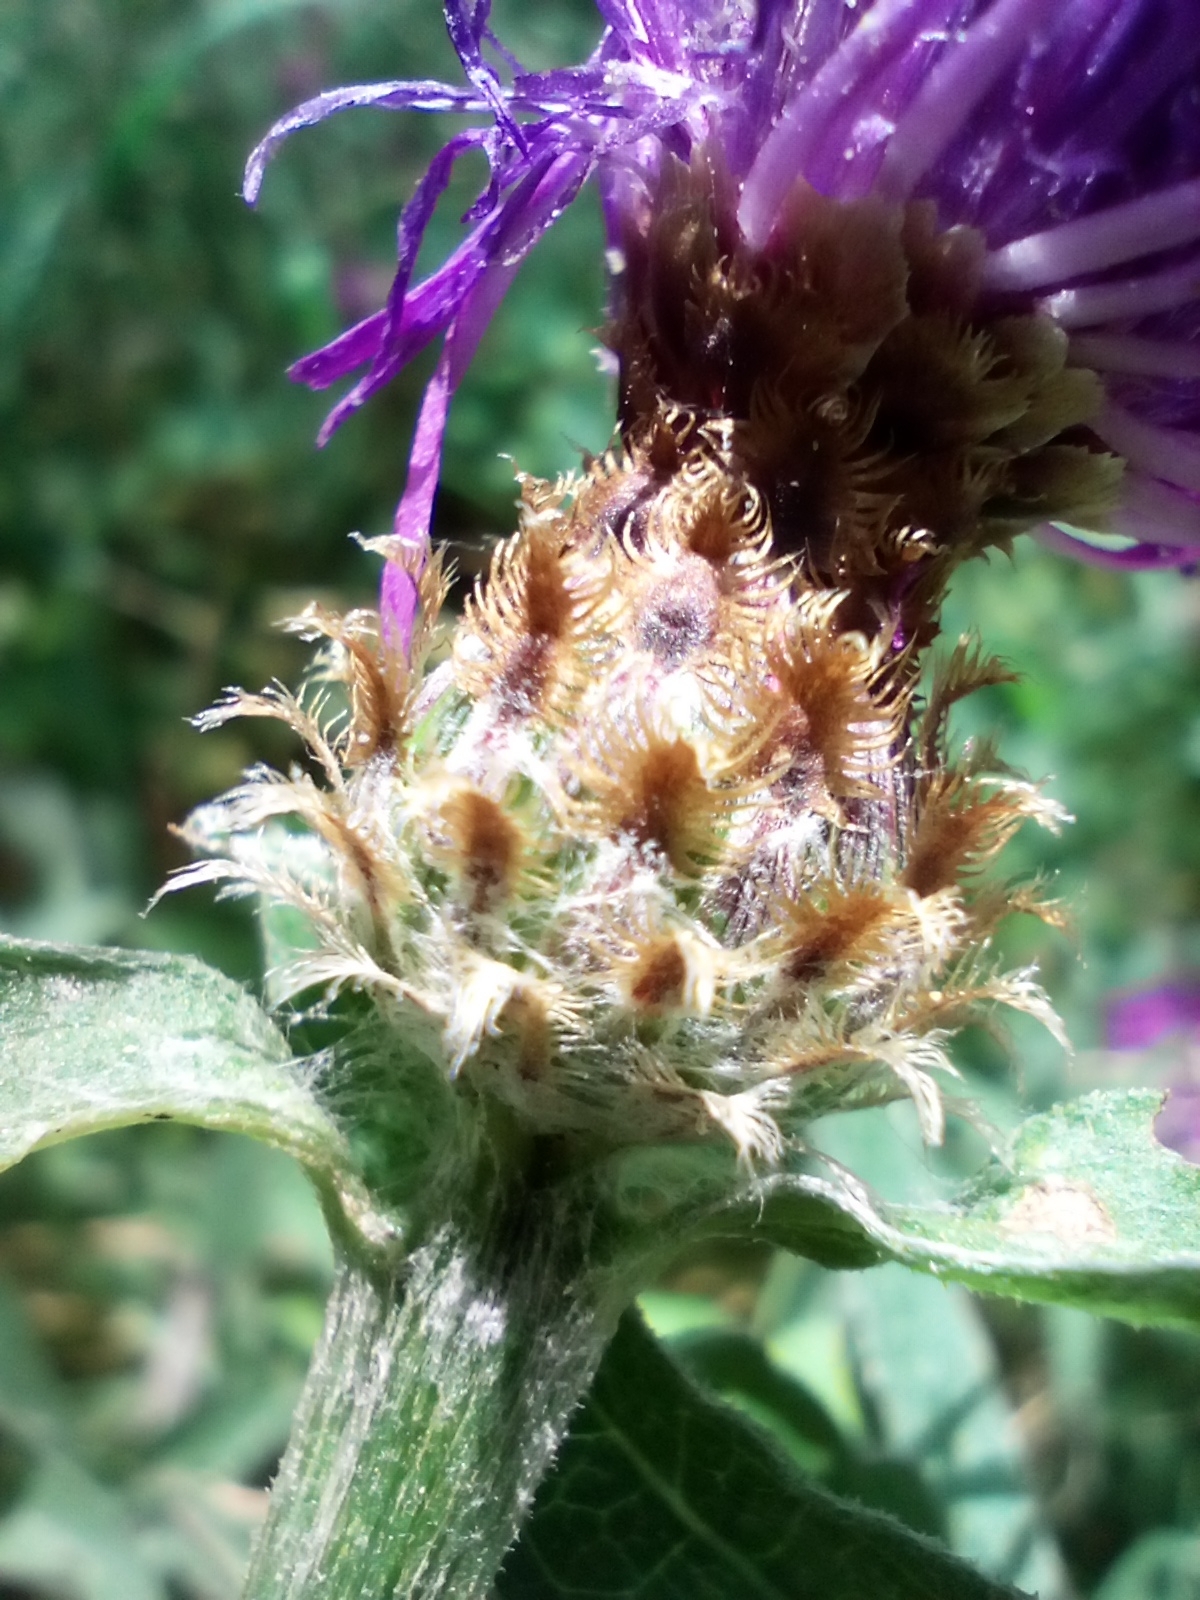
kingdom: Plantae
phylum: Tracheophyta
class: Magnoliopsida
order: Asterales
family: Asteraceae
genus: Centaurea
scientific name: Centaurea fleischeri
